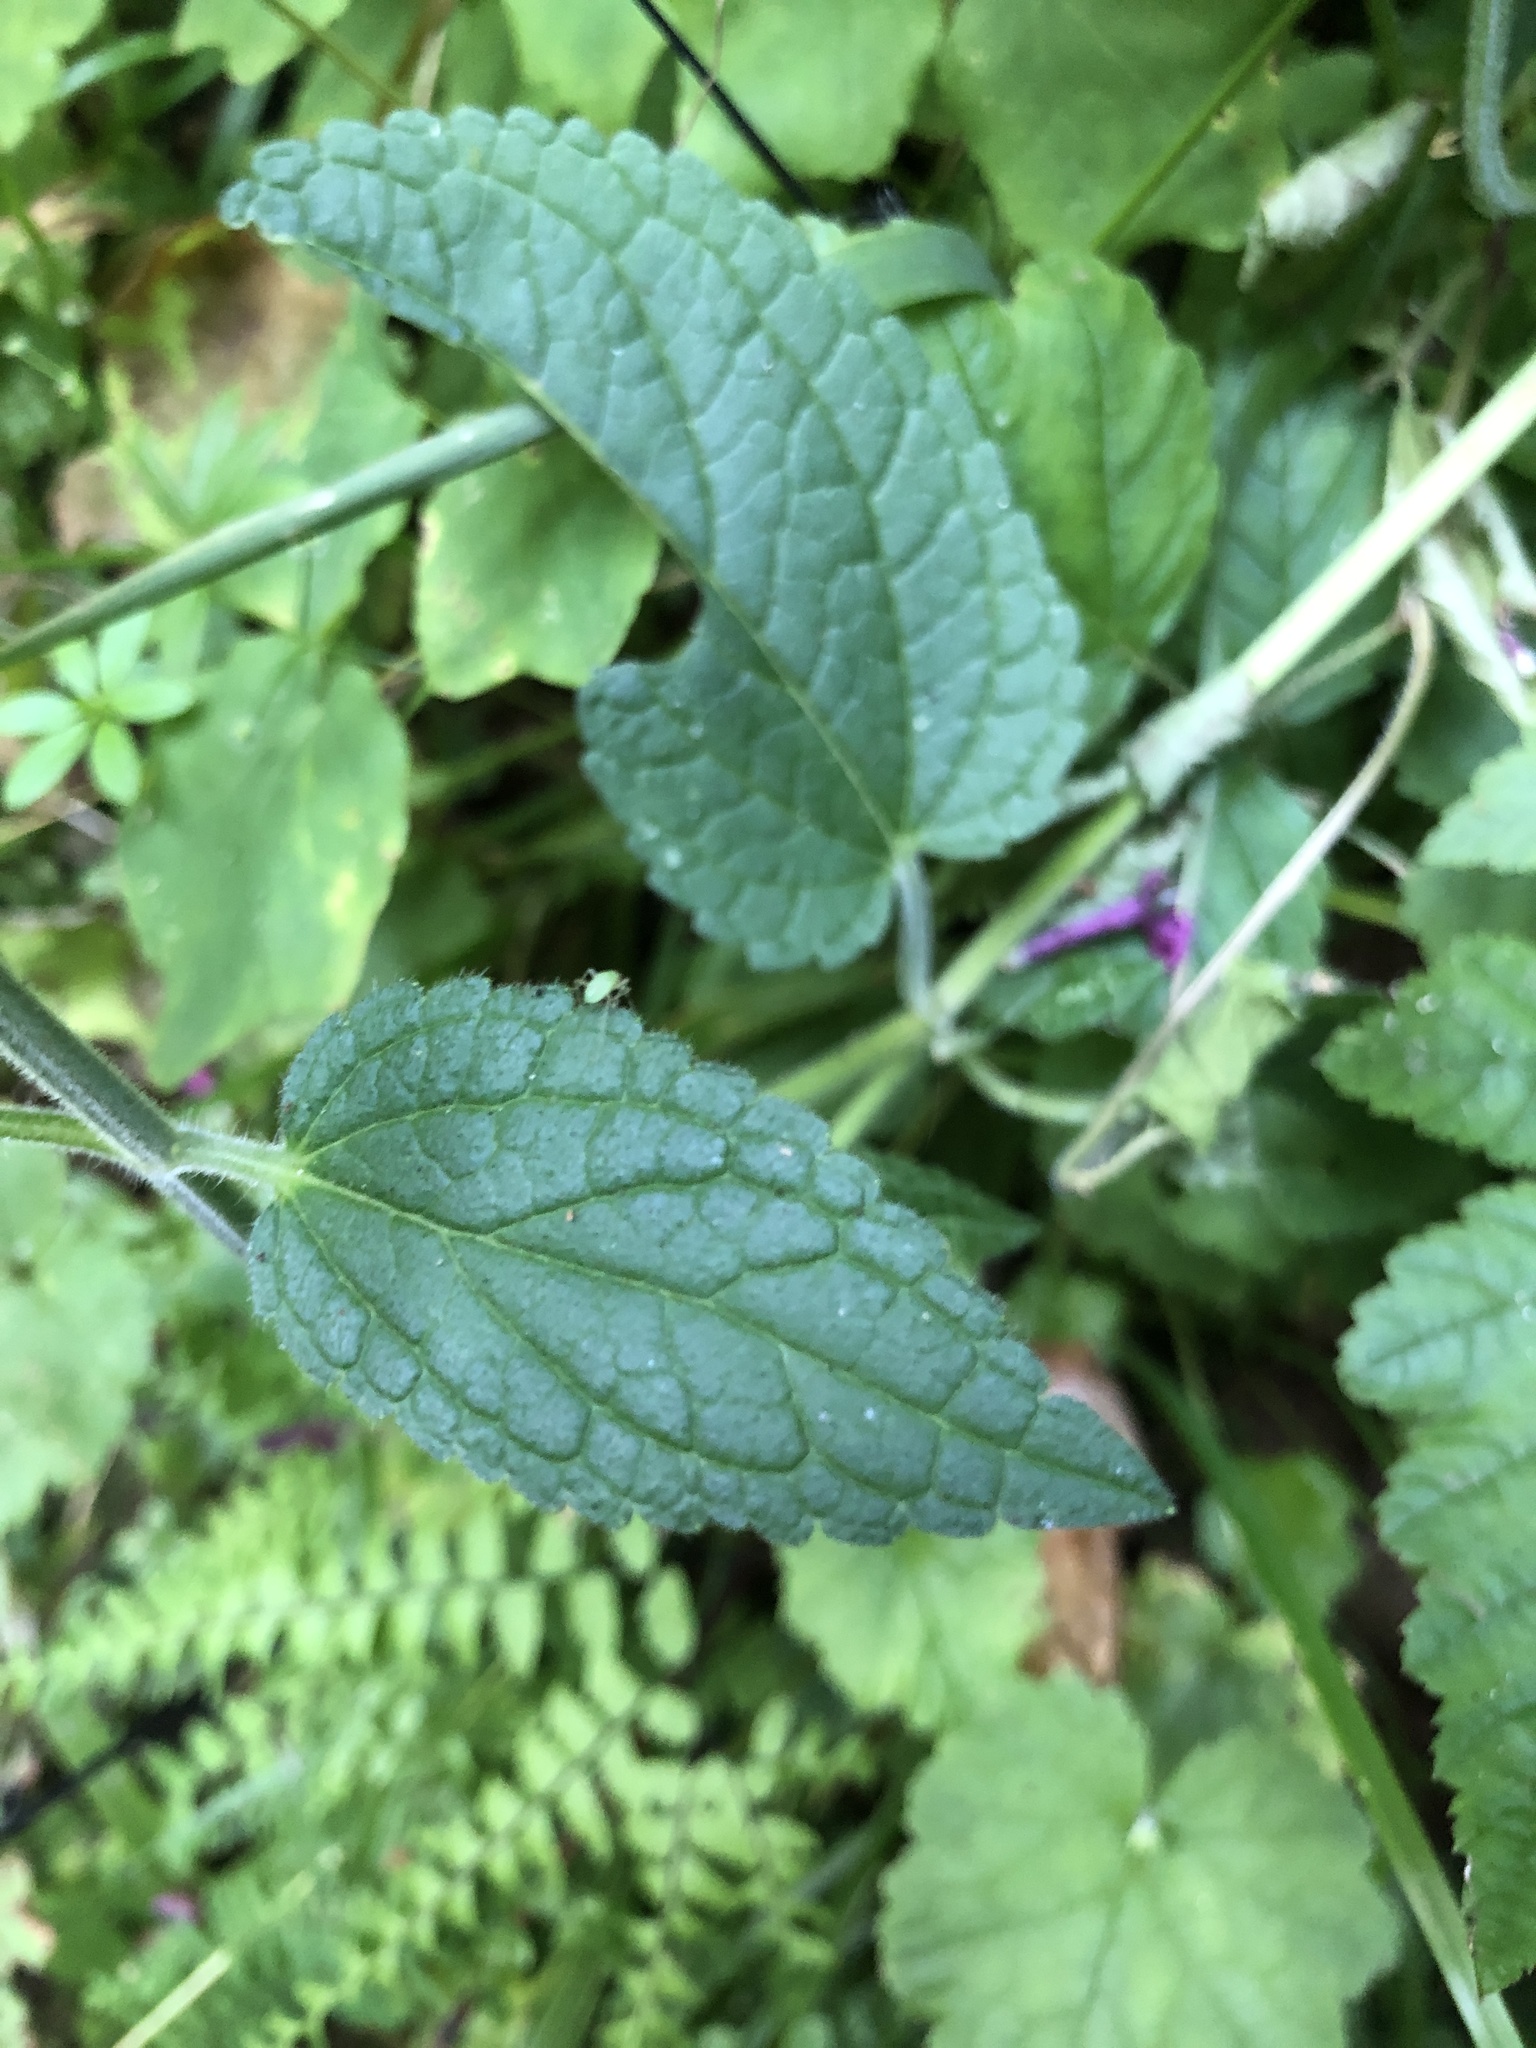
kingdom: Plantae
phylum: Tracheophyta
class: Magnoliopsida
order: Lamiales
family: Lamiaceae
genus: Stachys
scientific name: Stachys chamissonis
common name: Coastal hedge-nettle
